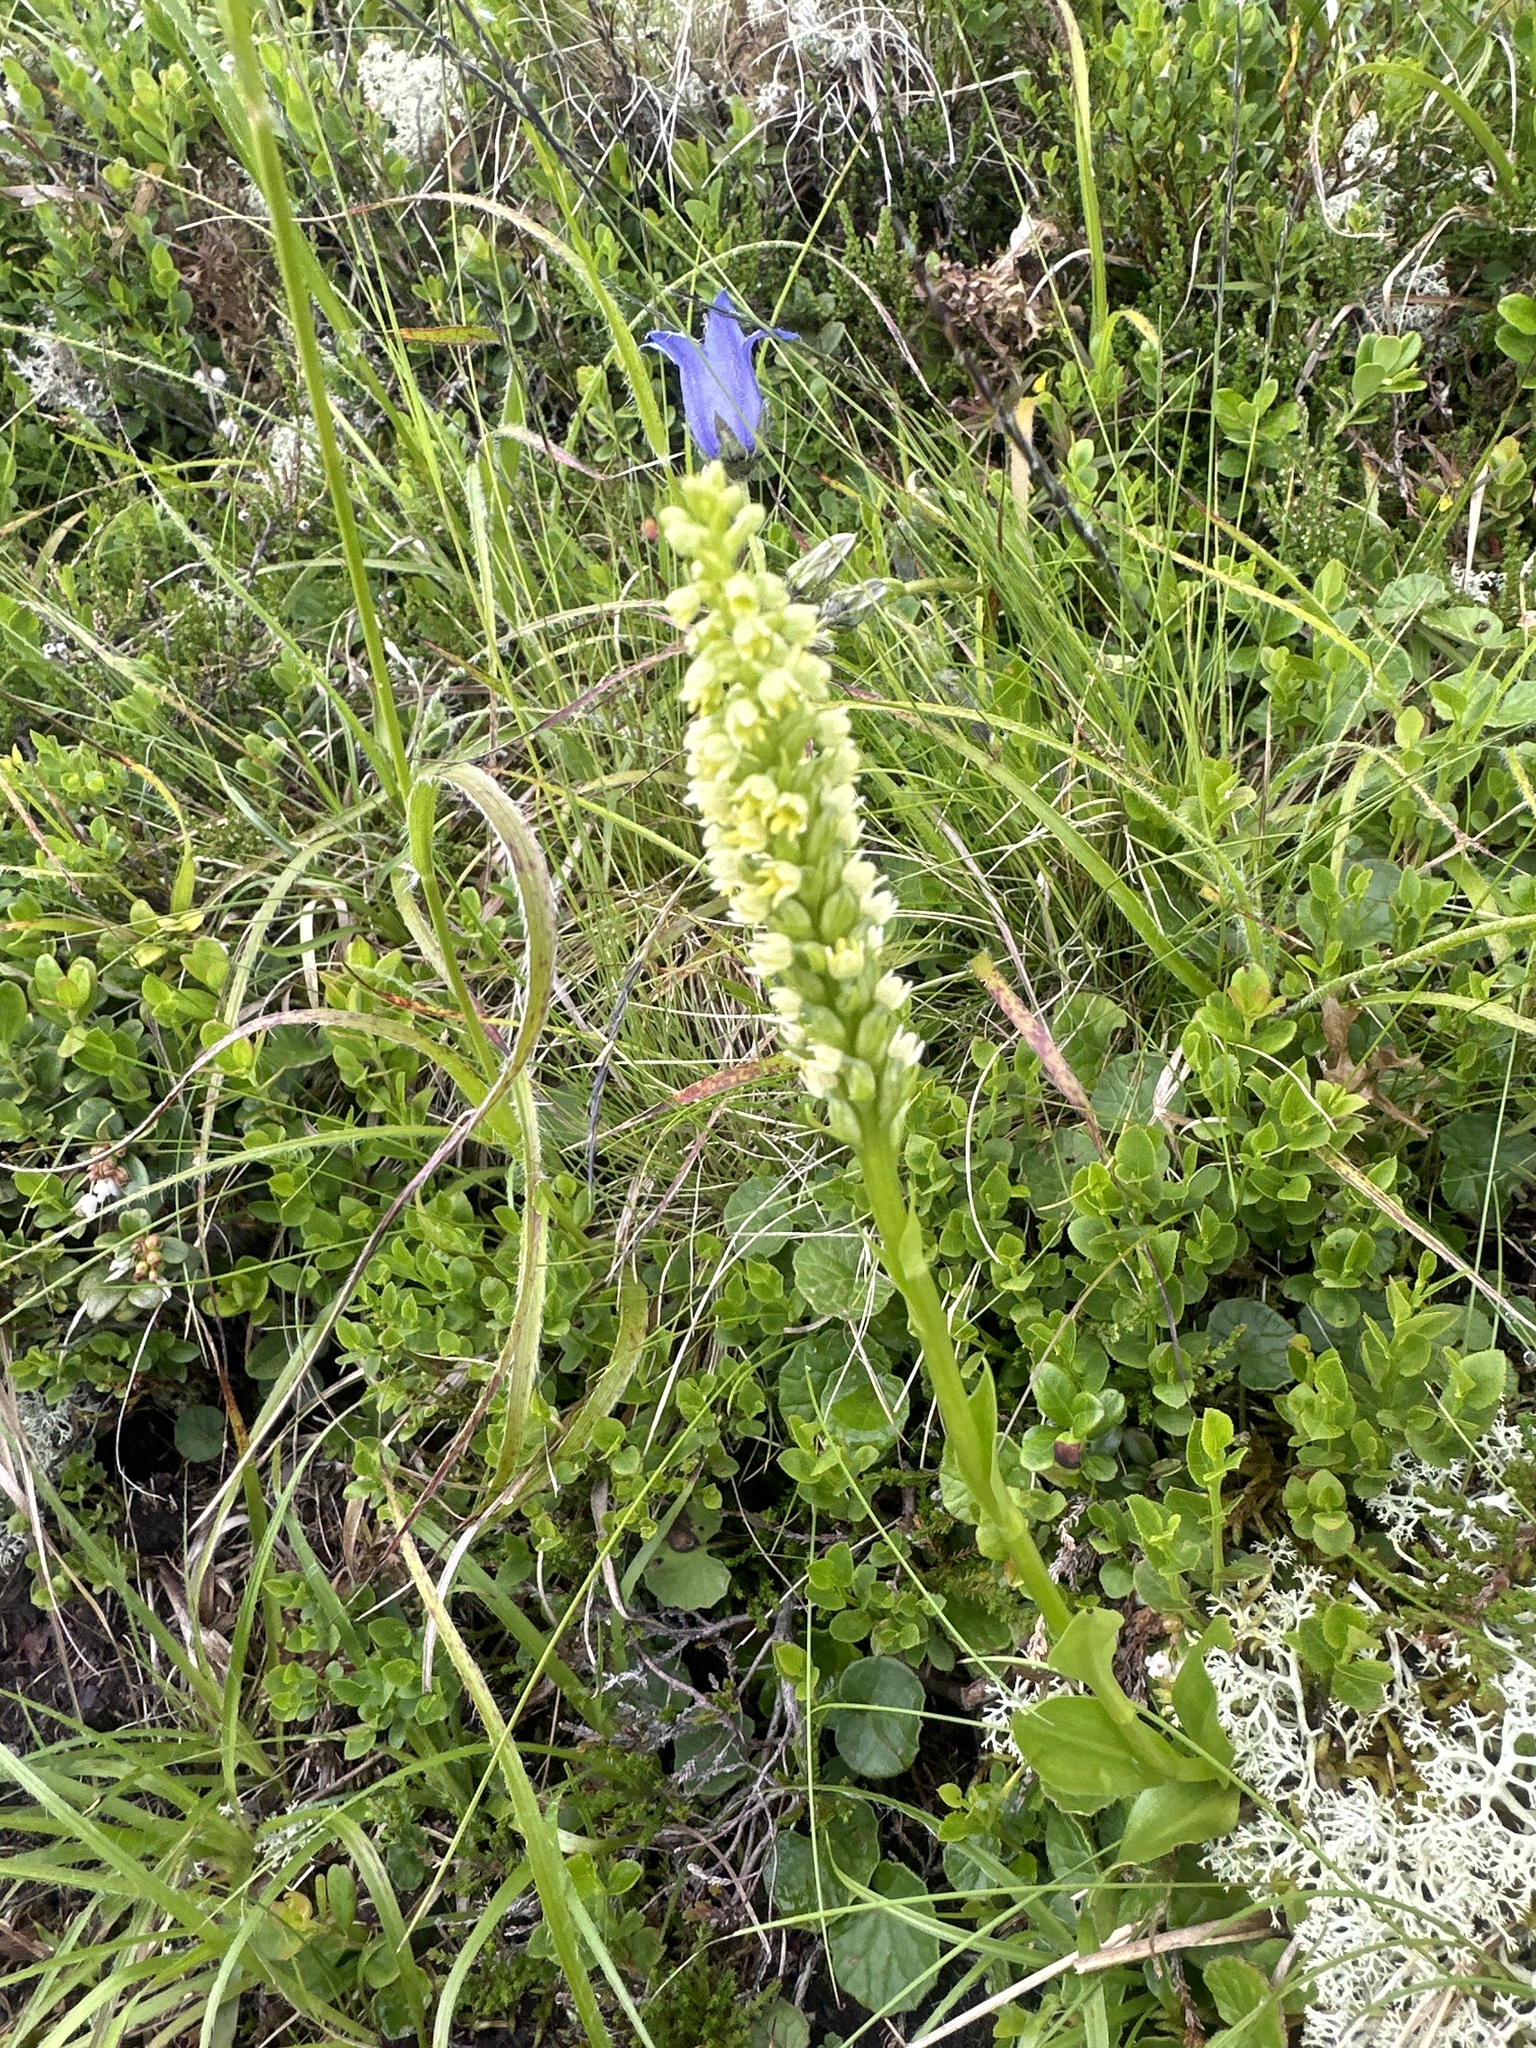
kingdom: Plantae
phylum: Tracheophyta
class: Liliopsida
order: Asparagales
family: Orchidaceae
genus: Pseudorchis
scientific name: Pseudorchis albida
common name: Small-white orchid
